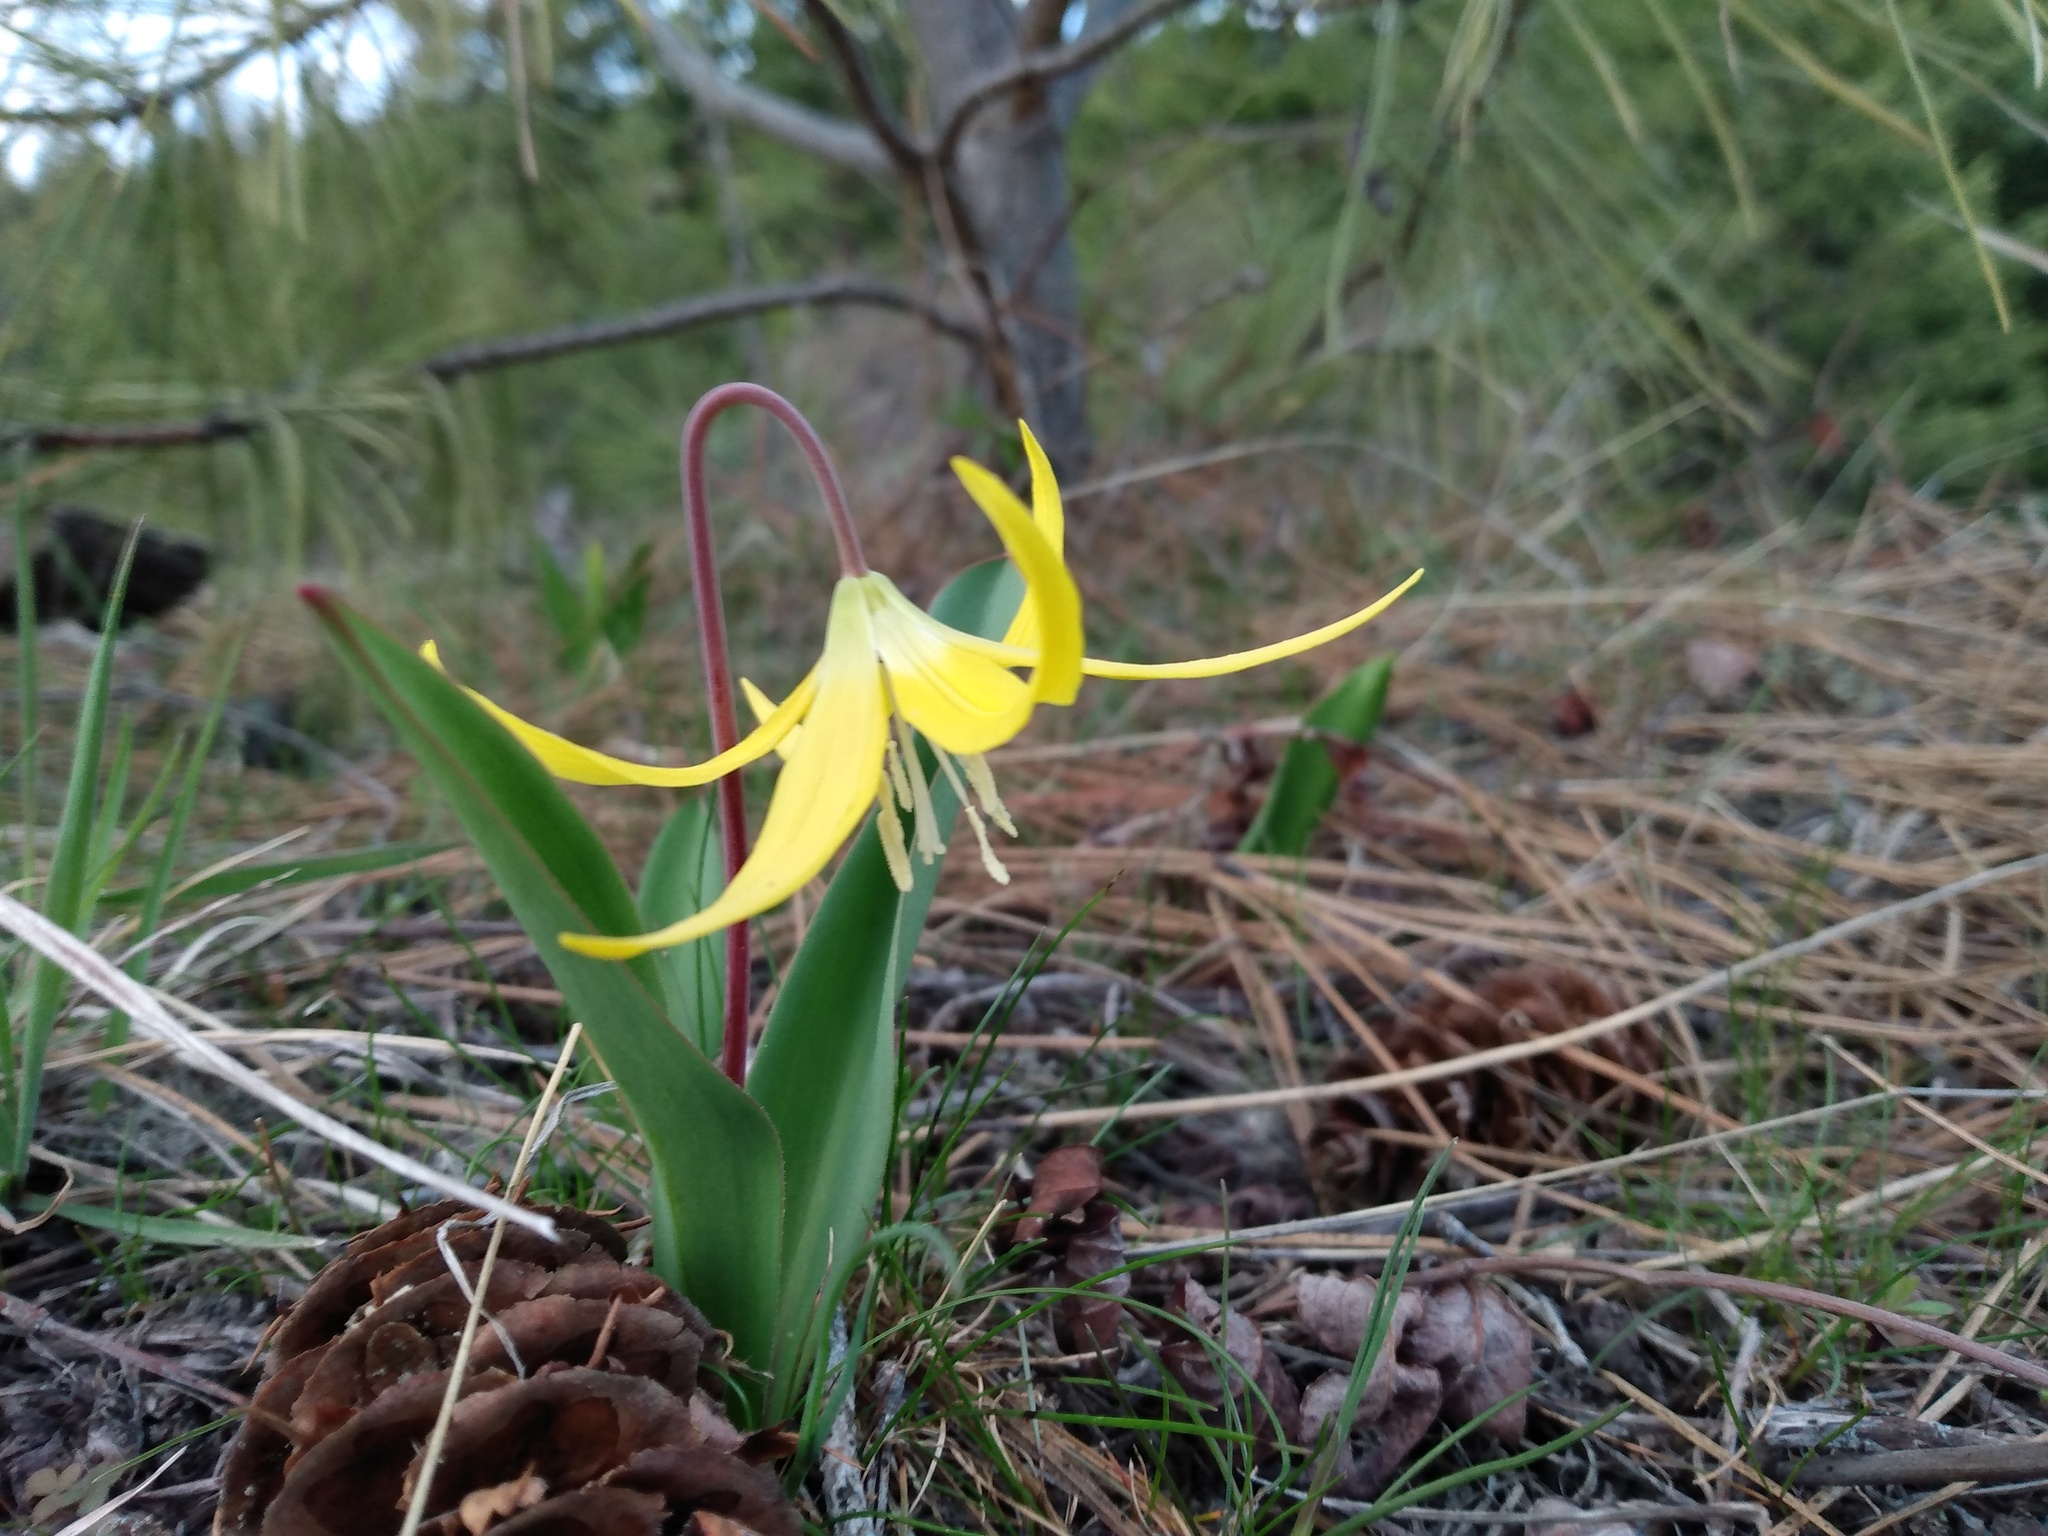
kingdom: Plantae
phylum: Tracheophyta
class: Liliopsida
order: Liliales
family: Liliaceae
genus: Erythronium
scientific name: Erythronium grandiflorum
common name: Avalanche-lily
